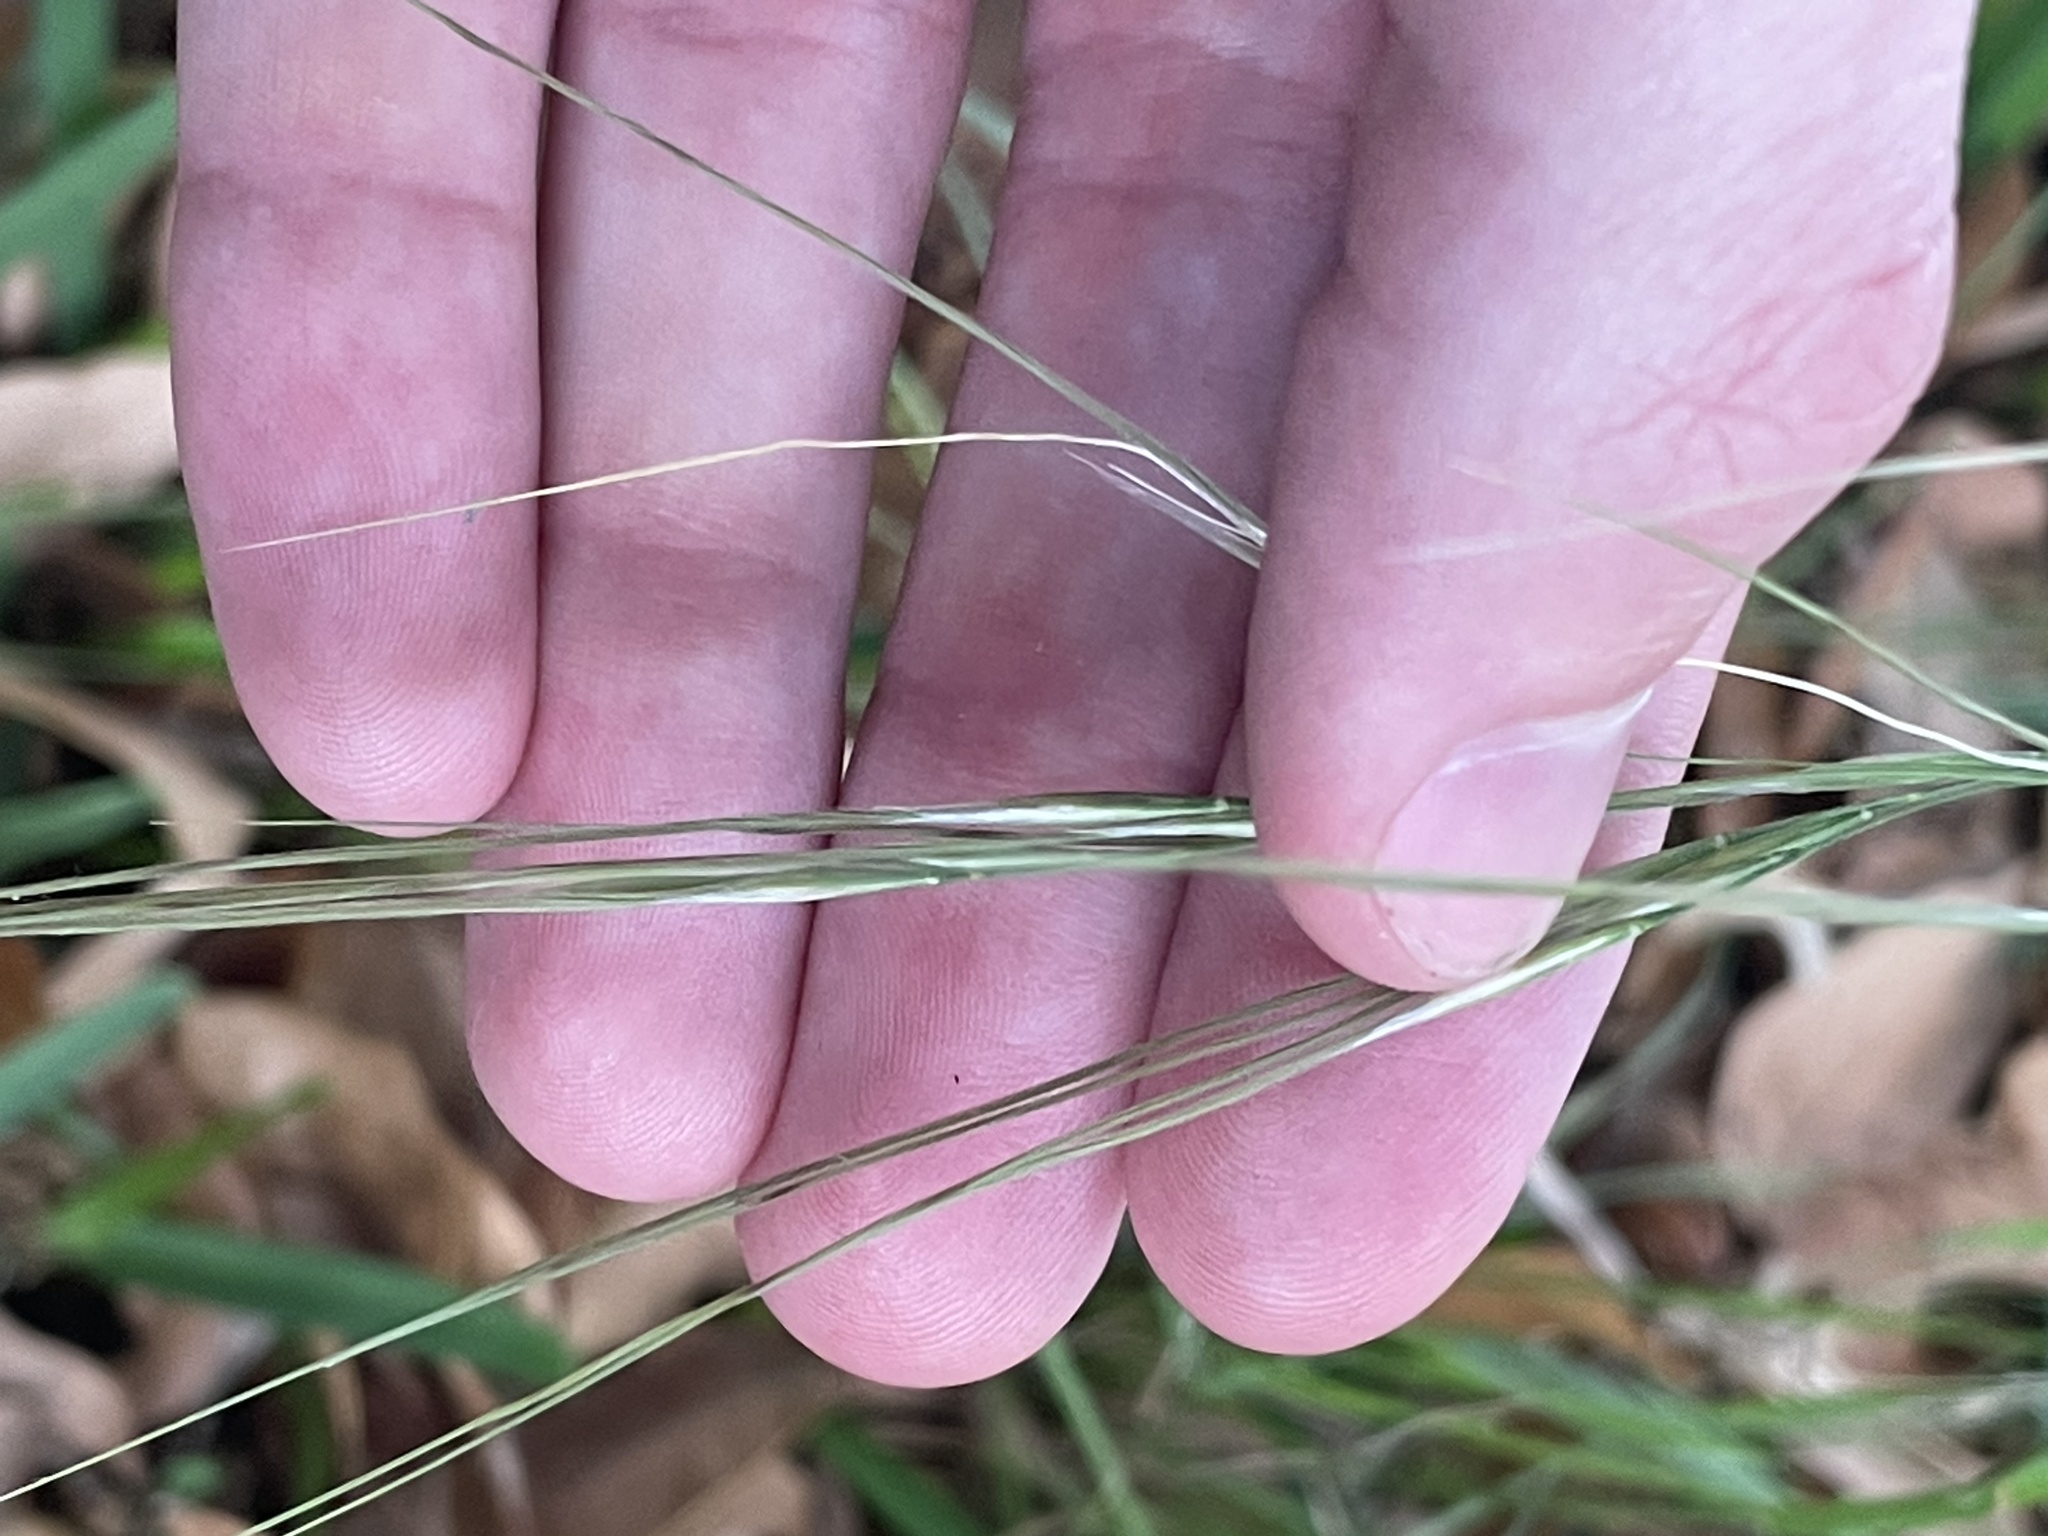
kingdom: Plantae
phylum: Tracheophyta
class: Liliopsida
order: Poales
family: Poaceae
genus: Nassella
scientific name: Nassella leucotricha
